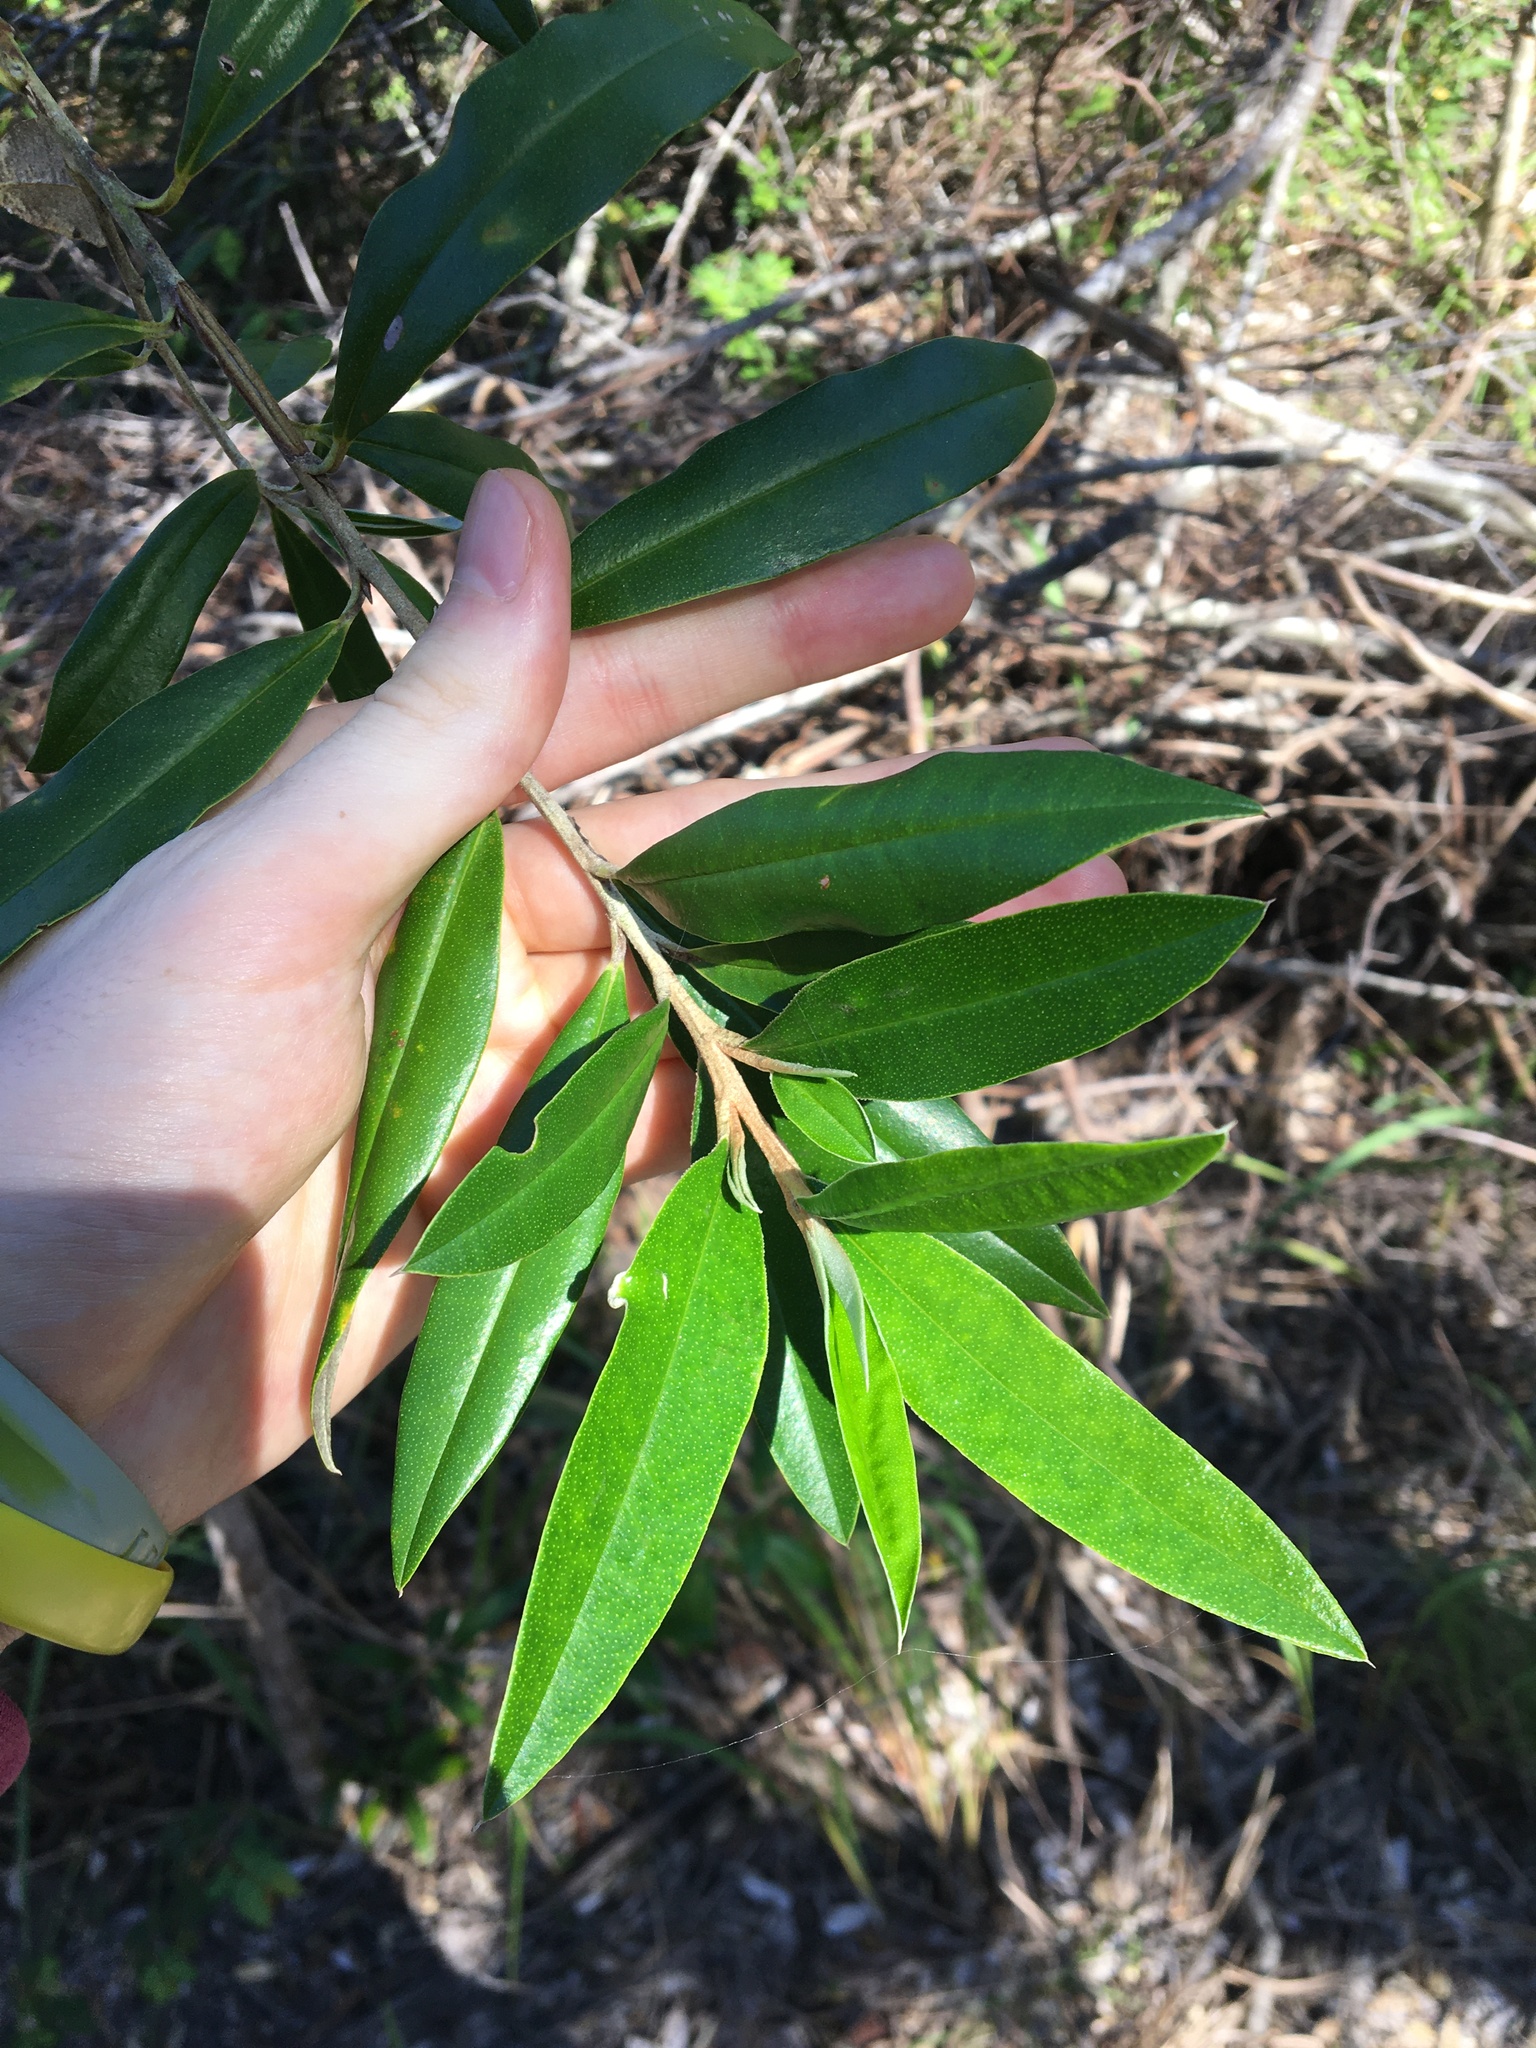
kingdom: Plantae
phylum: Tracheophyta
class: Magnoliopsida
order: Sapindales
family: Rutaceae
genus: Nematolepis
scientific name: Nematolepis squamea
